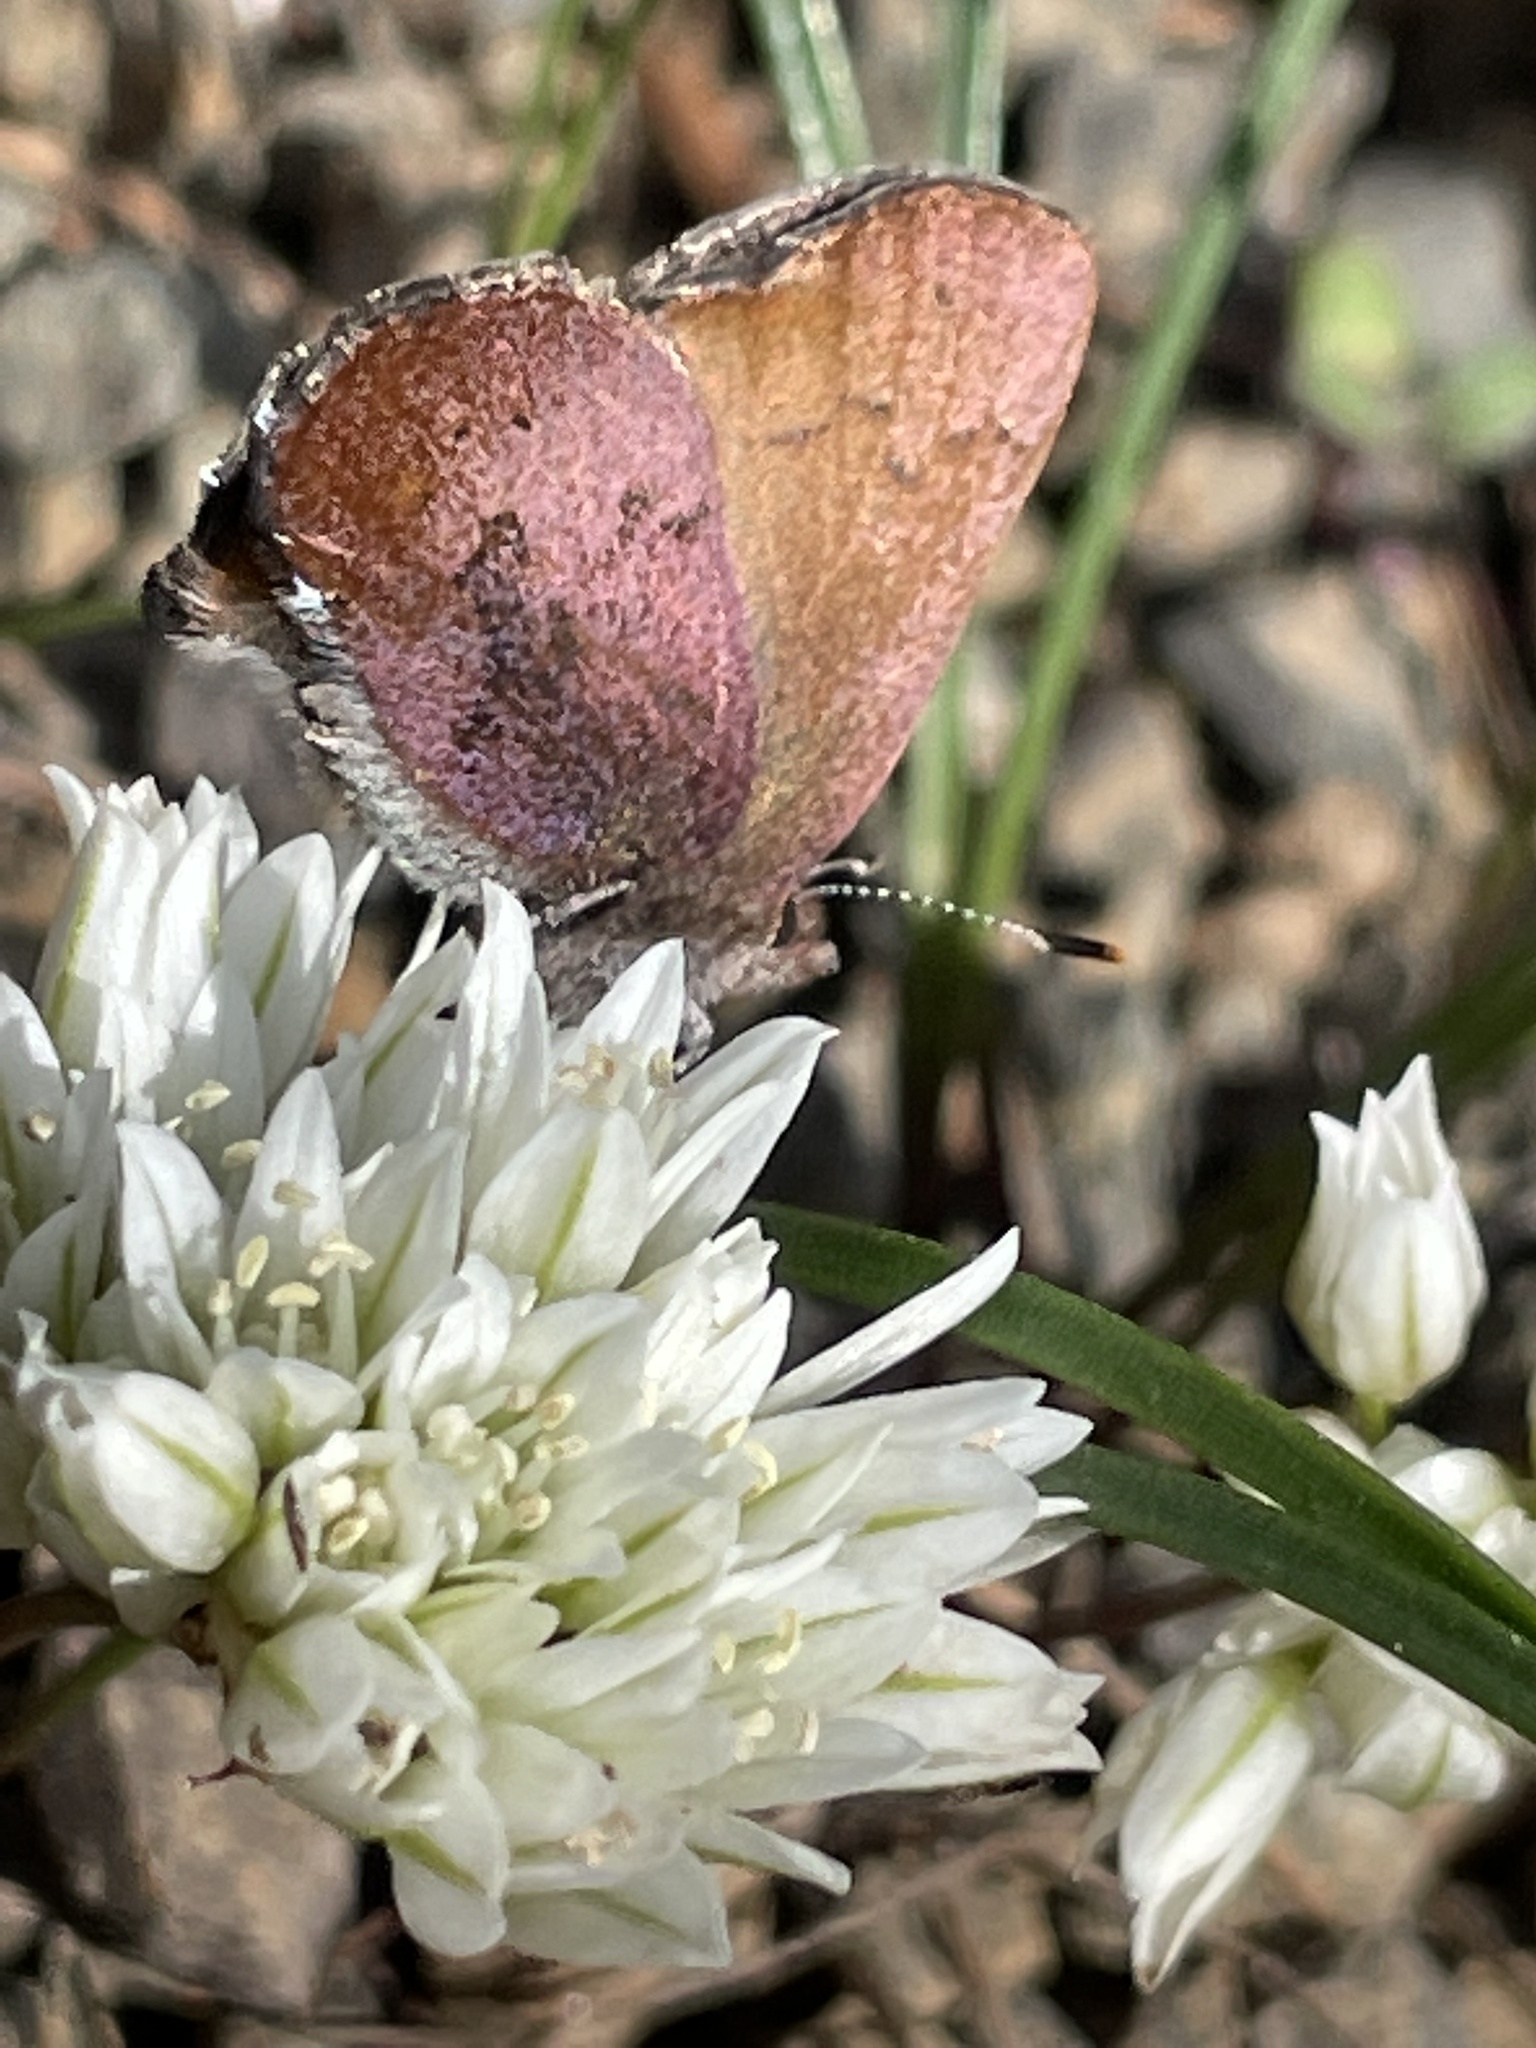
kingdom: Animalia
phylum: Arthropoda
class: Insecta
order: Lepidoptera
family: Lycaenidae
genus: Incisalia
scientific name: Incisalia irioides
